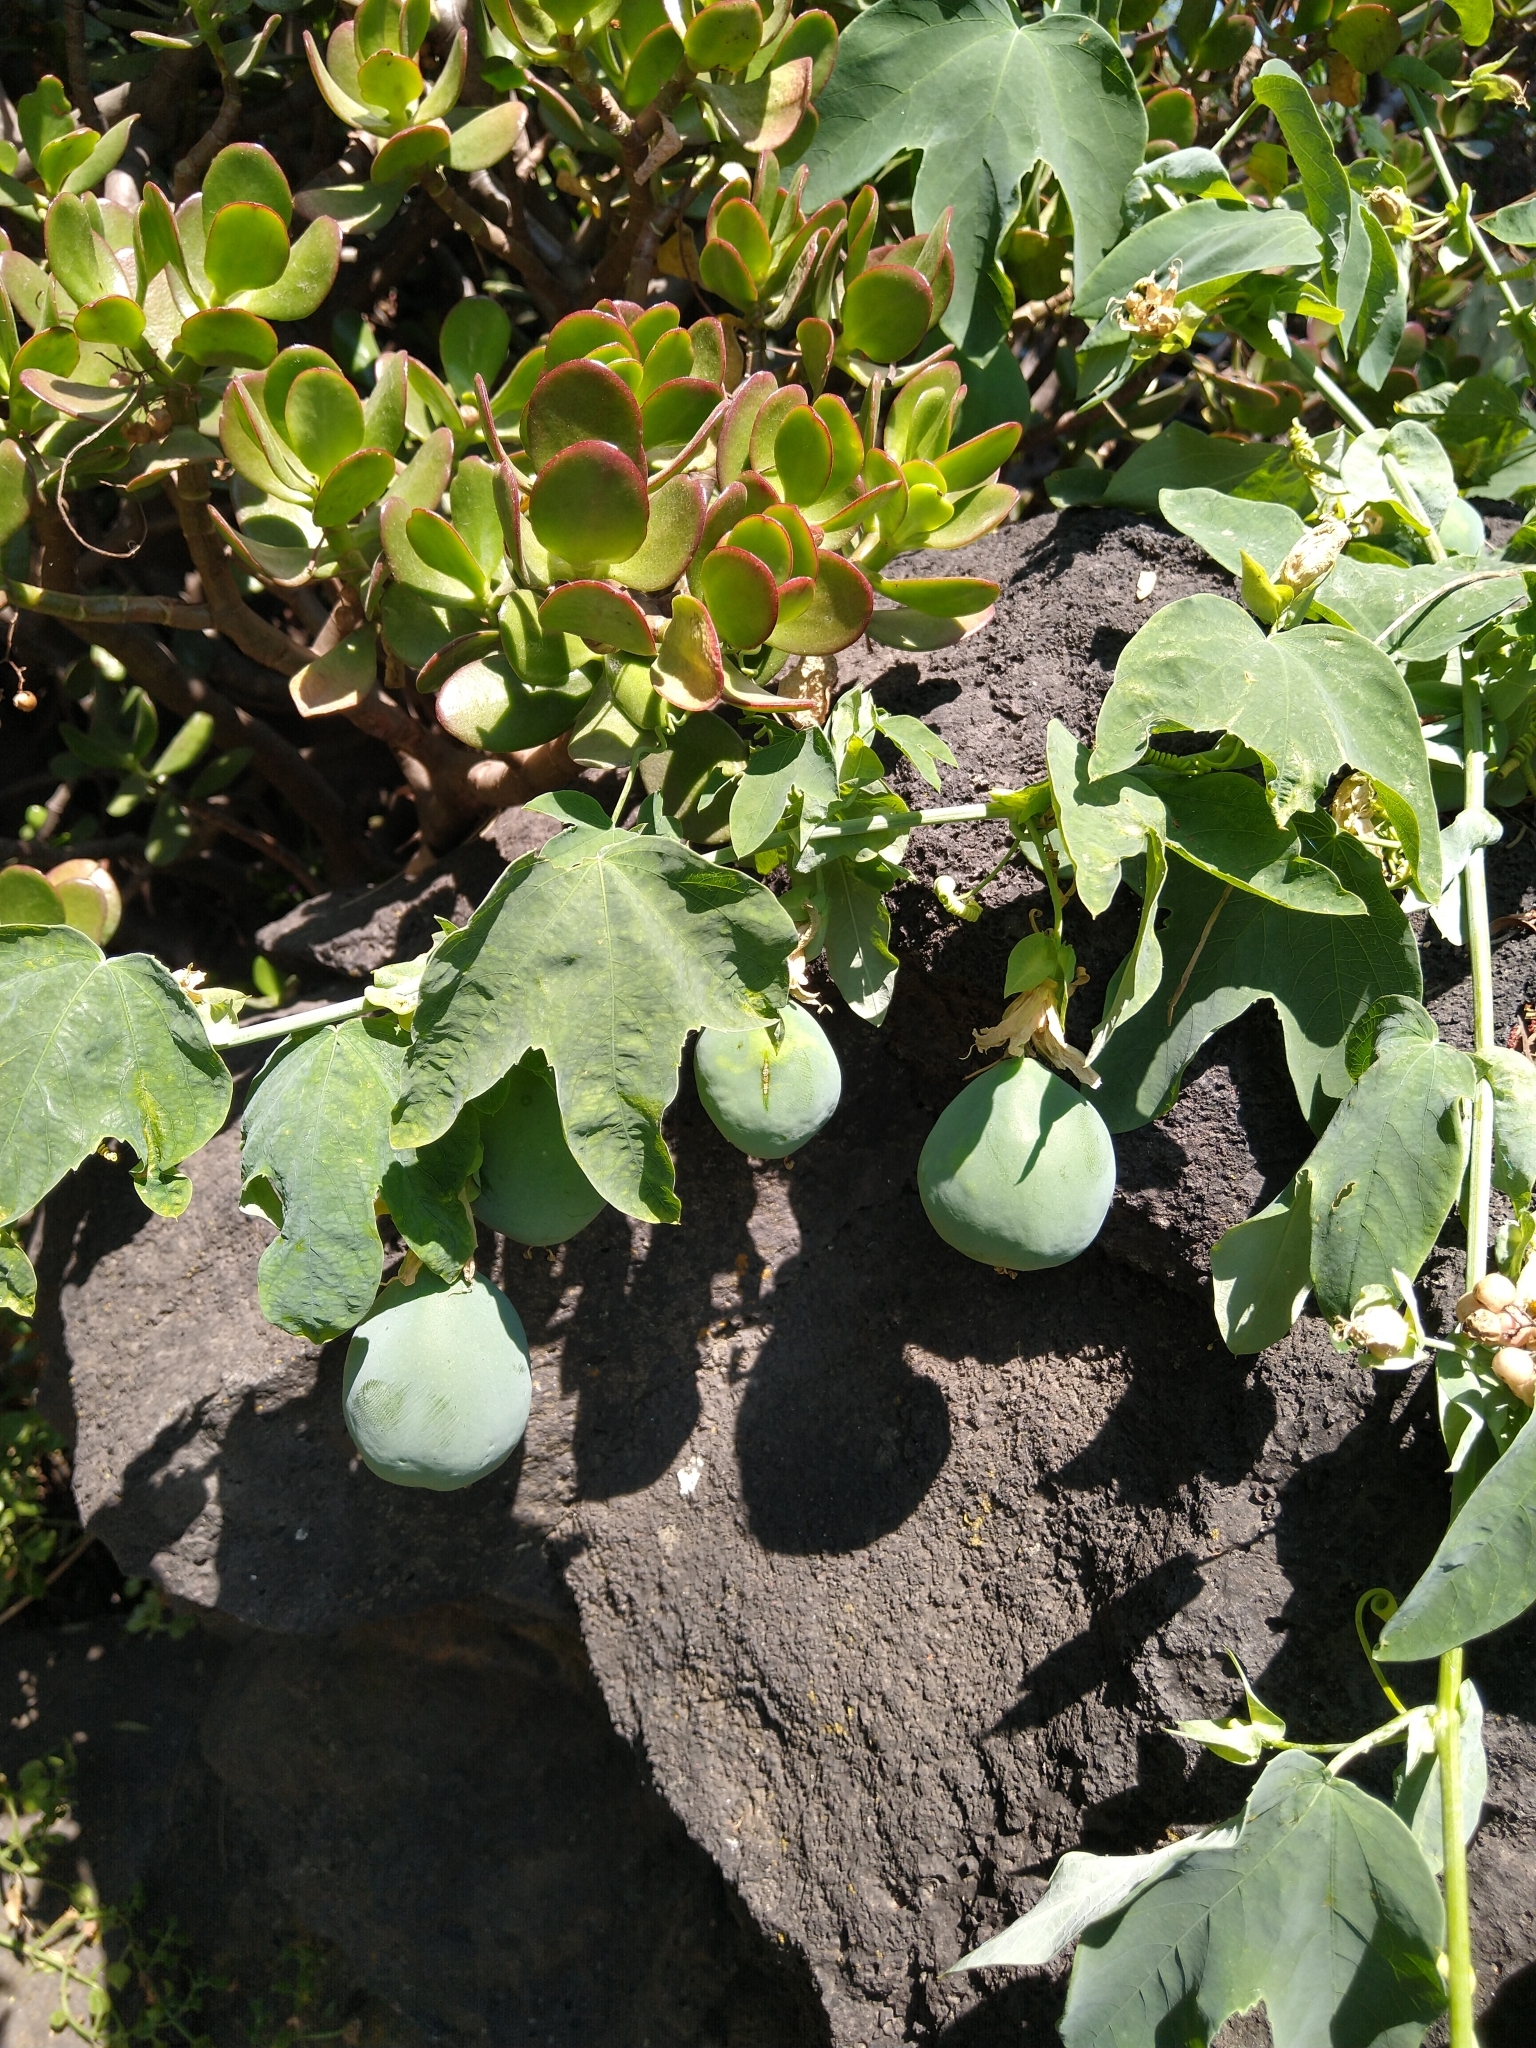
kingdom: Plantae
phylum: Tracheophyta
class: Magnoliopsida
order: Malpighiales
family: Passifloraceae
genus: Passiflora
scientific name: Passiflora subpeltata
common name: White passionflower
